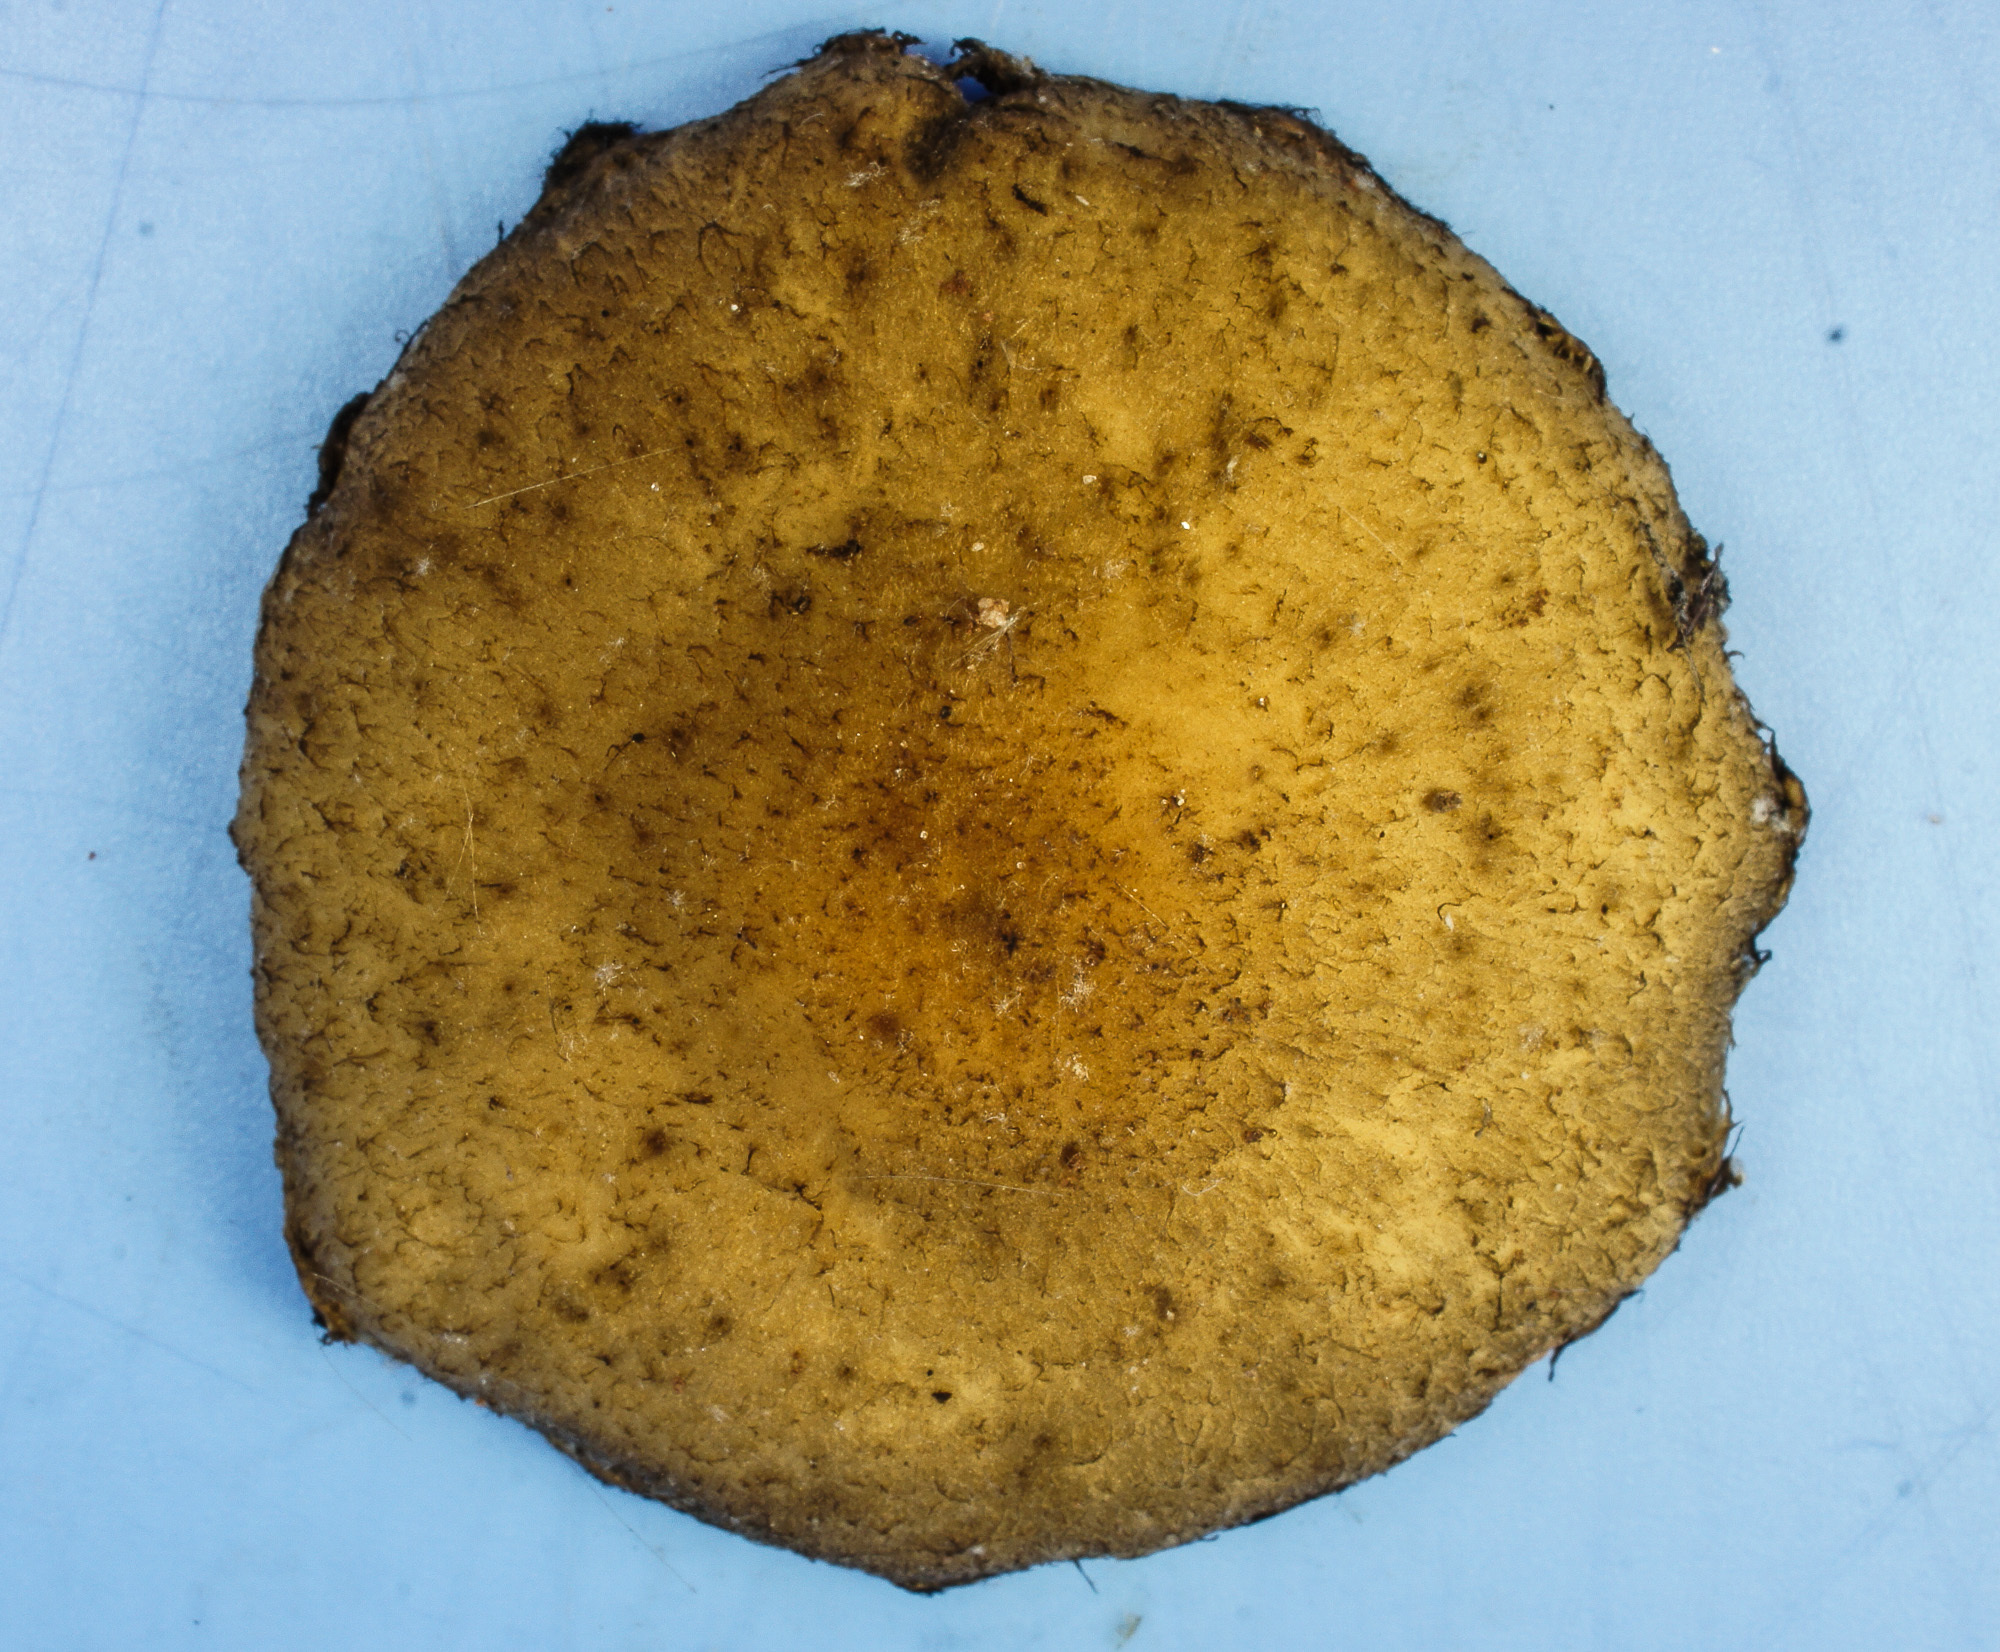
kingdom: Fungi
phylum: Basidiomycota
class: Agaricomycetes
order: Agaricales
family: Psathyrellaceae
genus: Lacrymaria
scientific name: Lacrymaria lacrymabunda
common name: Weeping widow
